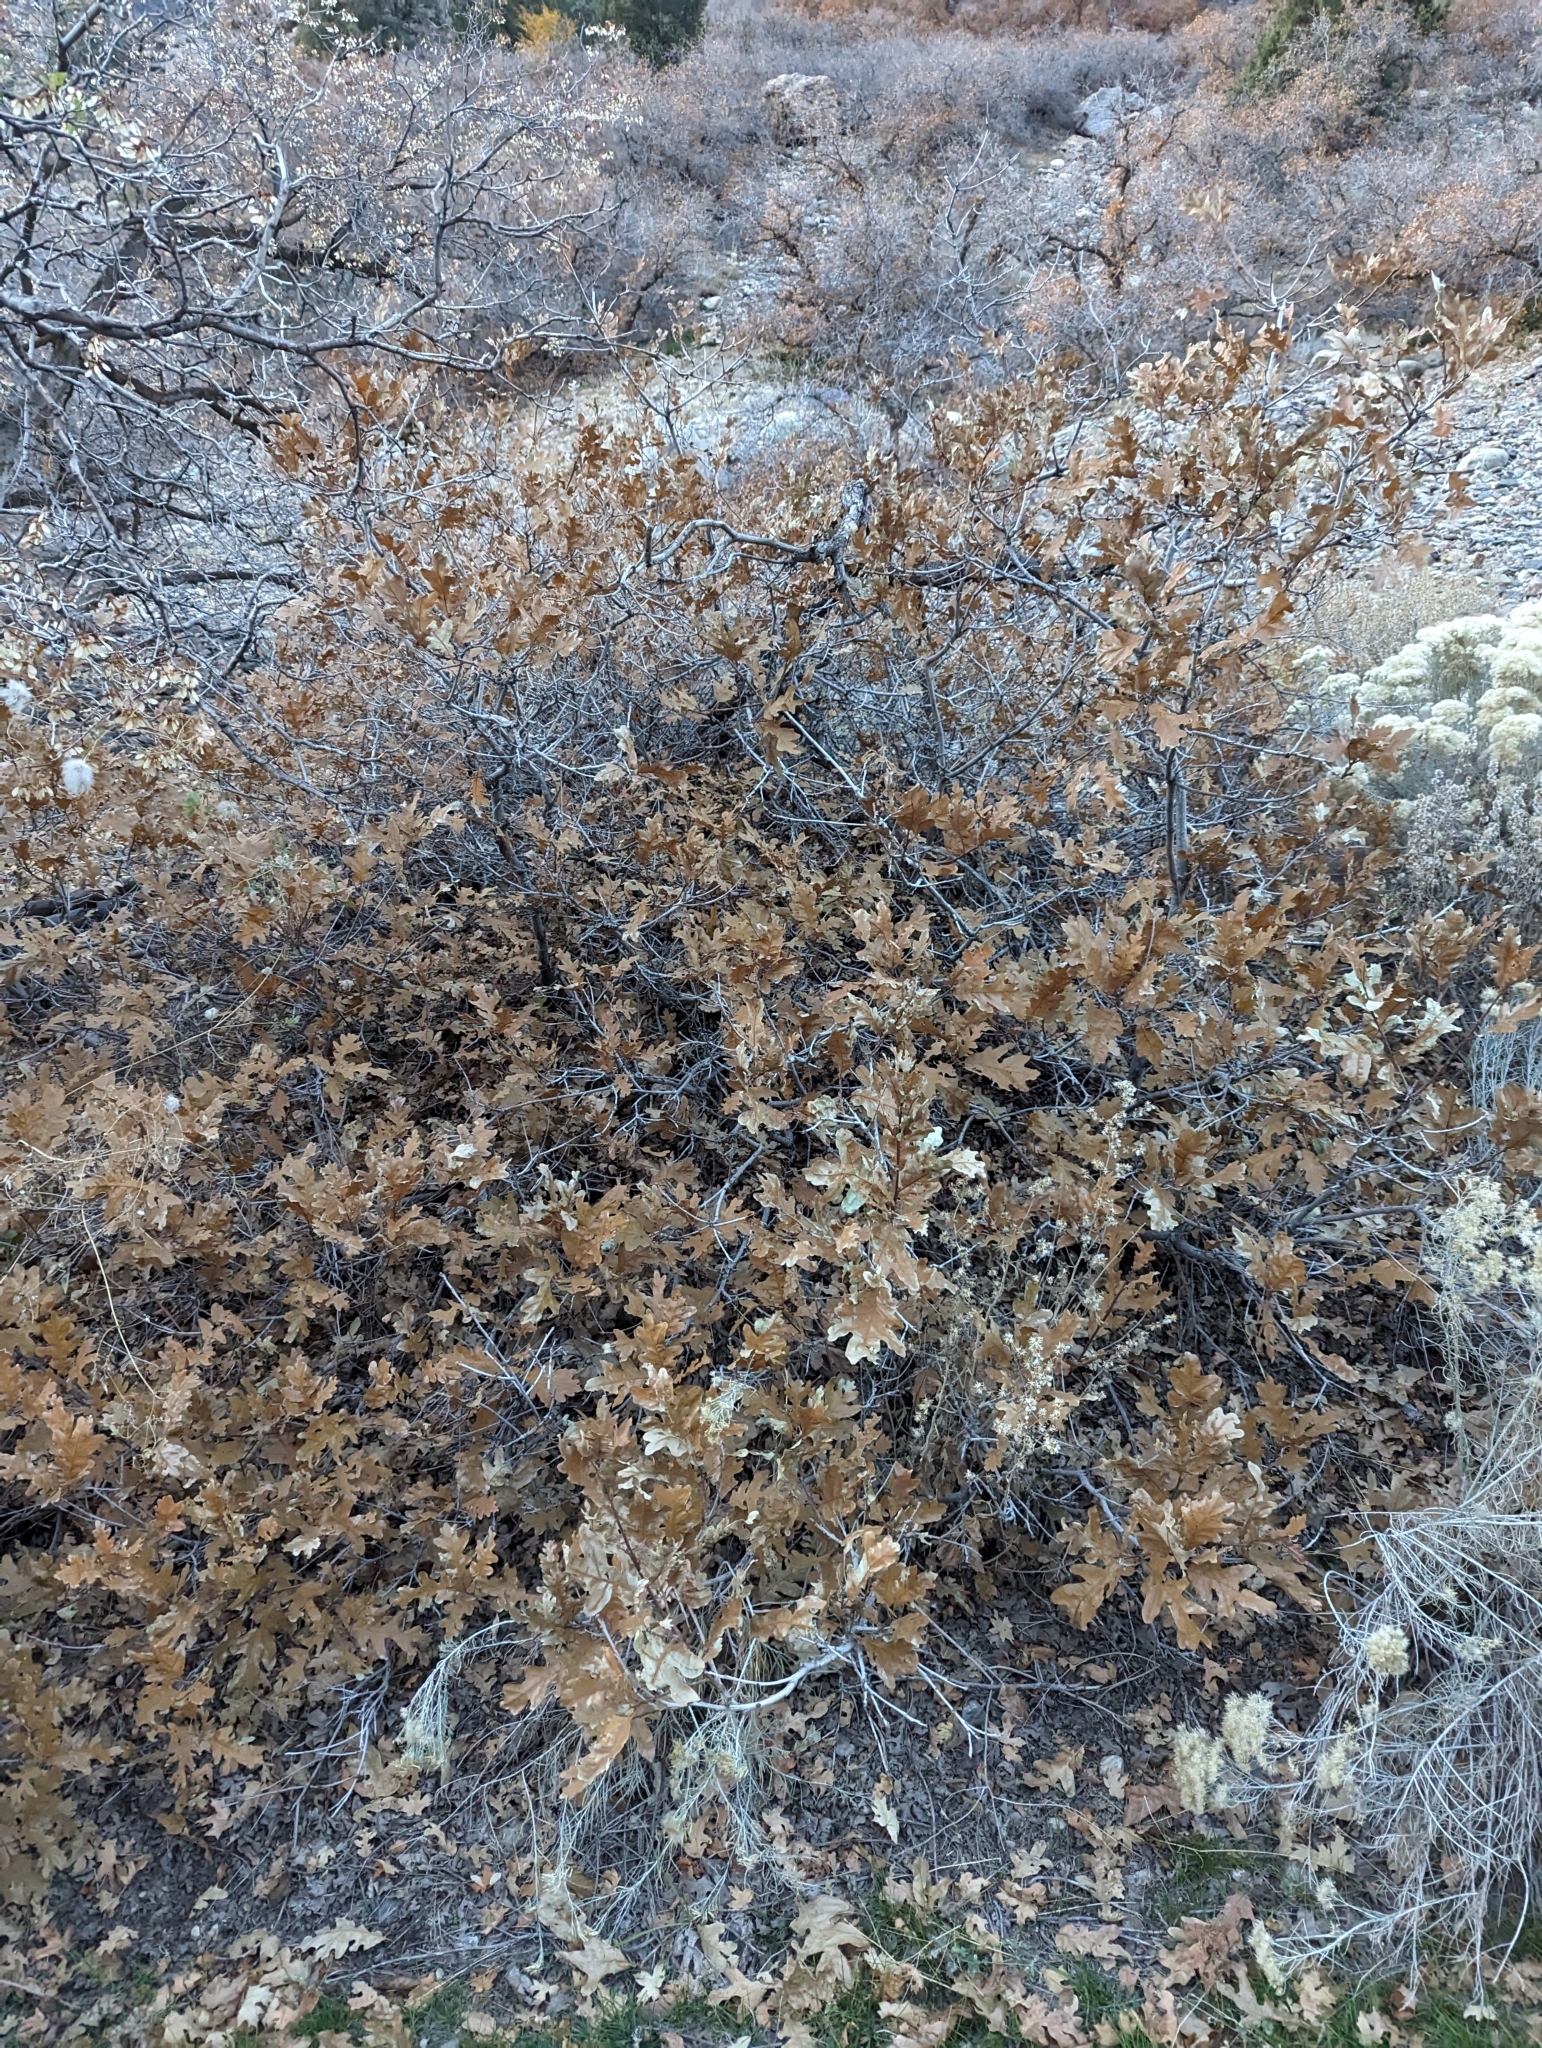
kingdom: Plantae
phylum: Tracheophyta
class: Magnoliopsida
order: Fagales
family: Fagaceae
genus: Quercus
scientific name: Quercus gambelii
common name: Gambel oak
